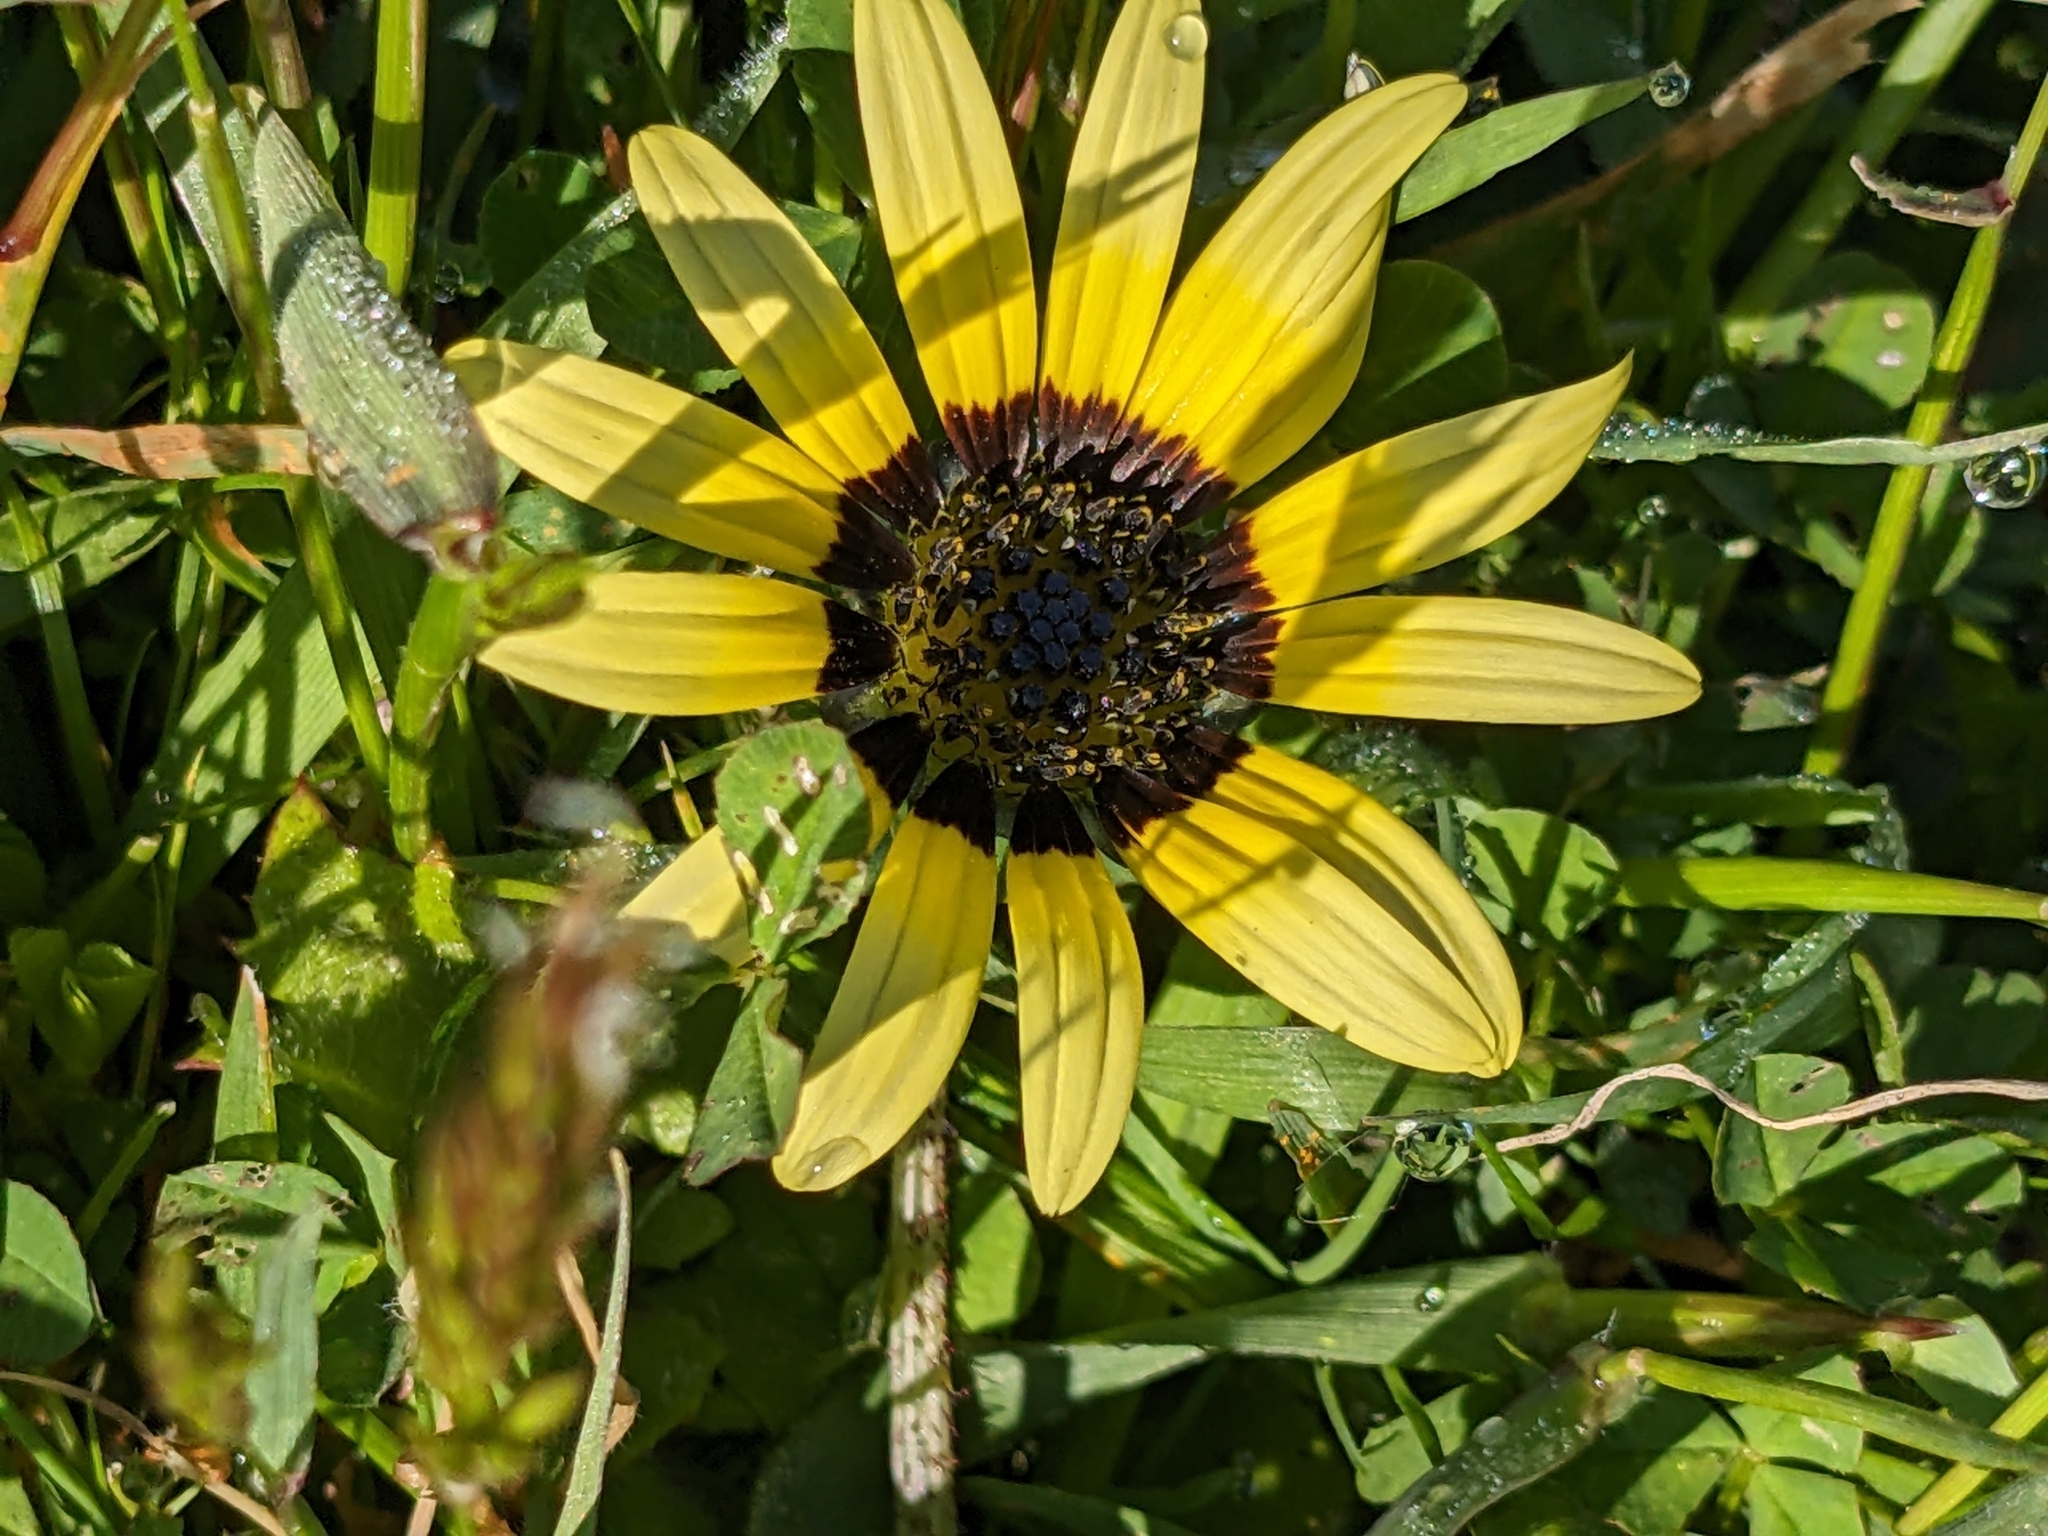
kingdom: Plantae
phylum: Tracheophyta
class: Magnoliopsida
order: Asterales
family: Asteraceae
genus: Arctotheca
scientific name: Arctotheca calendula
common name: Capeweed
